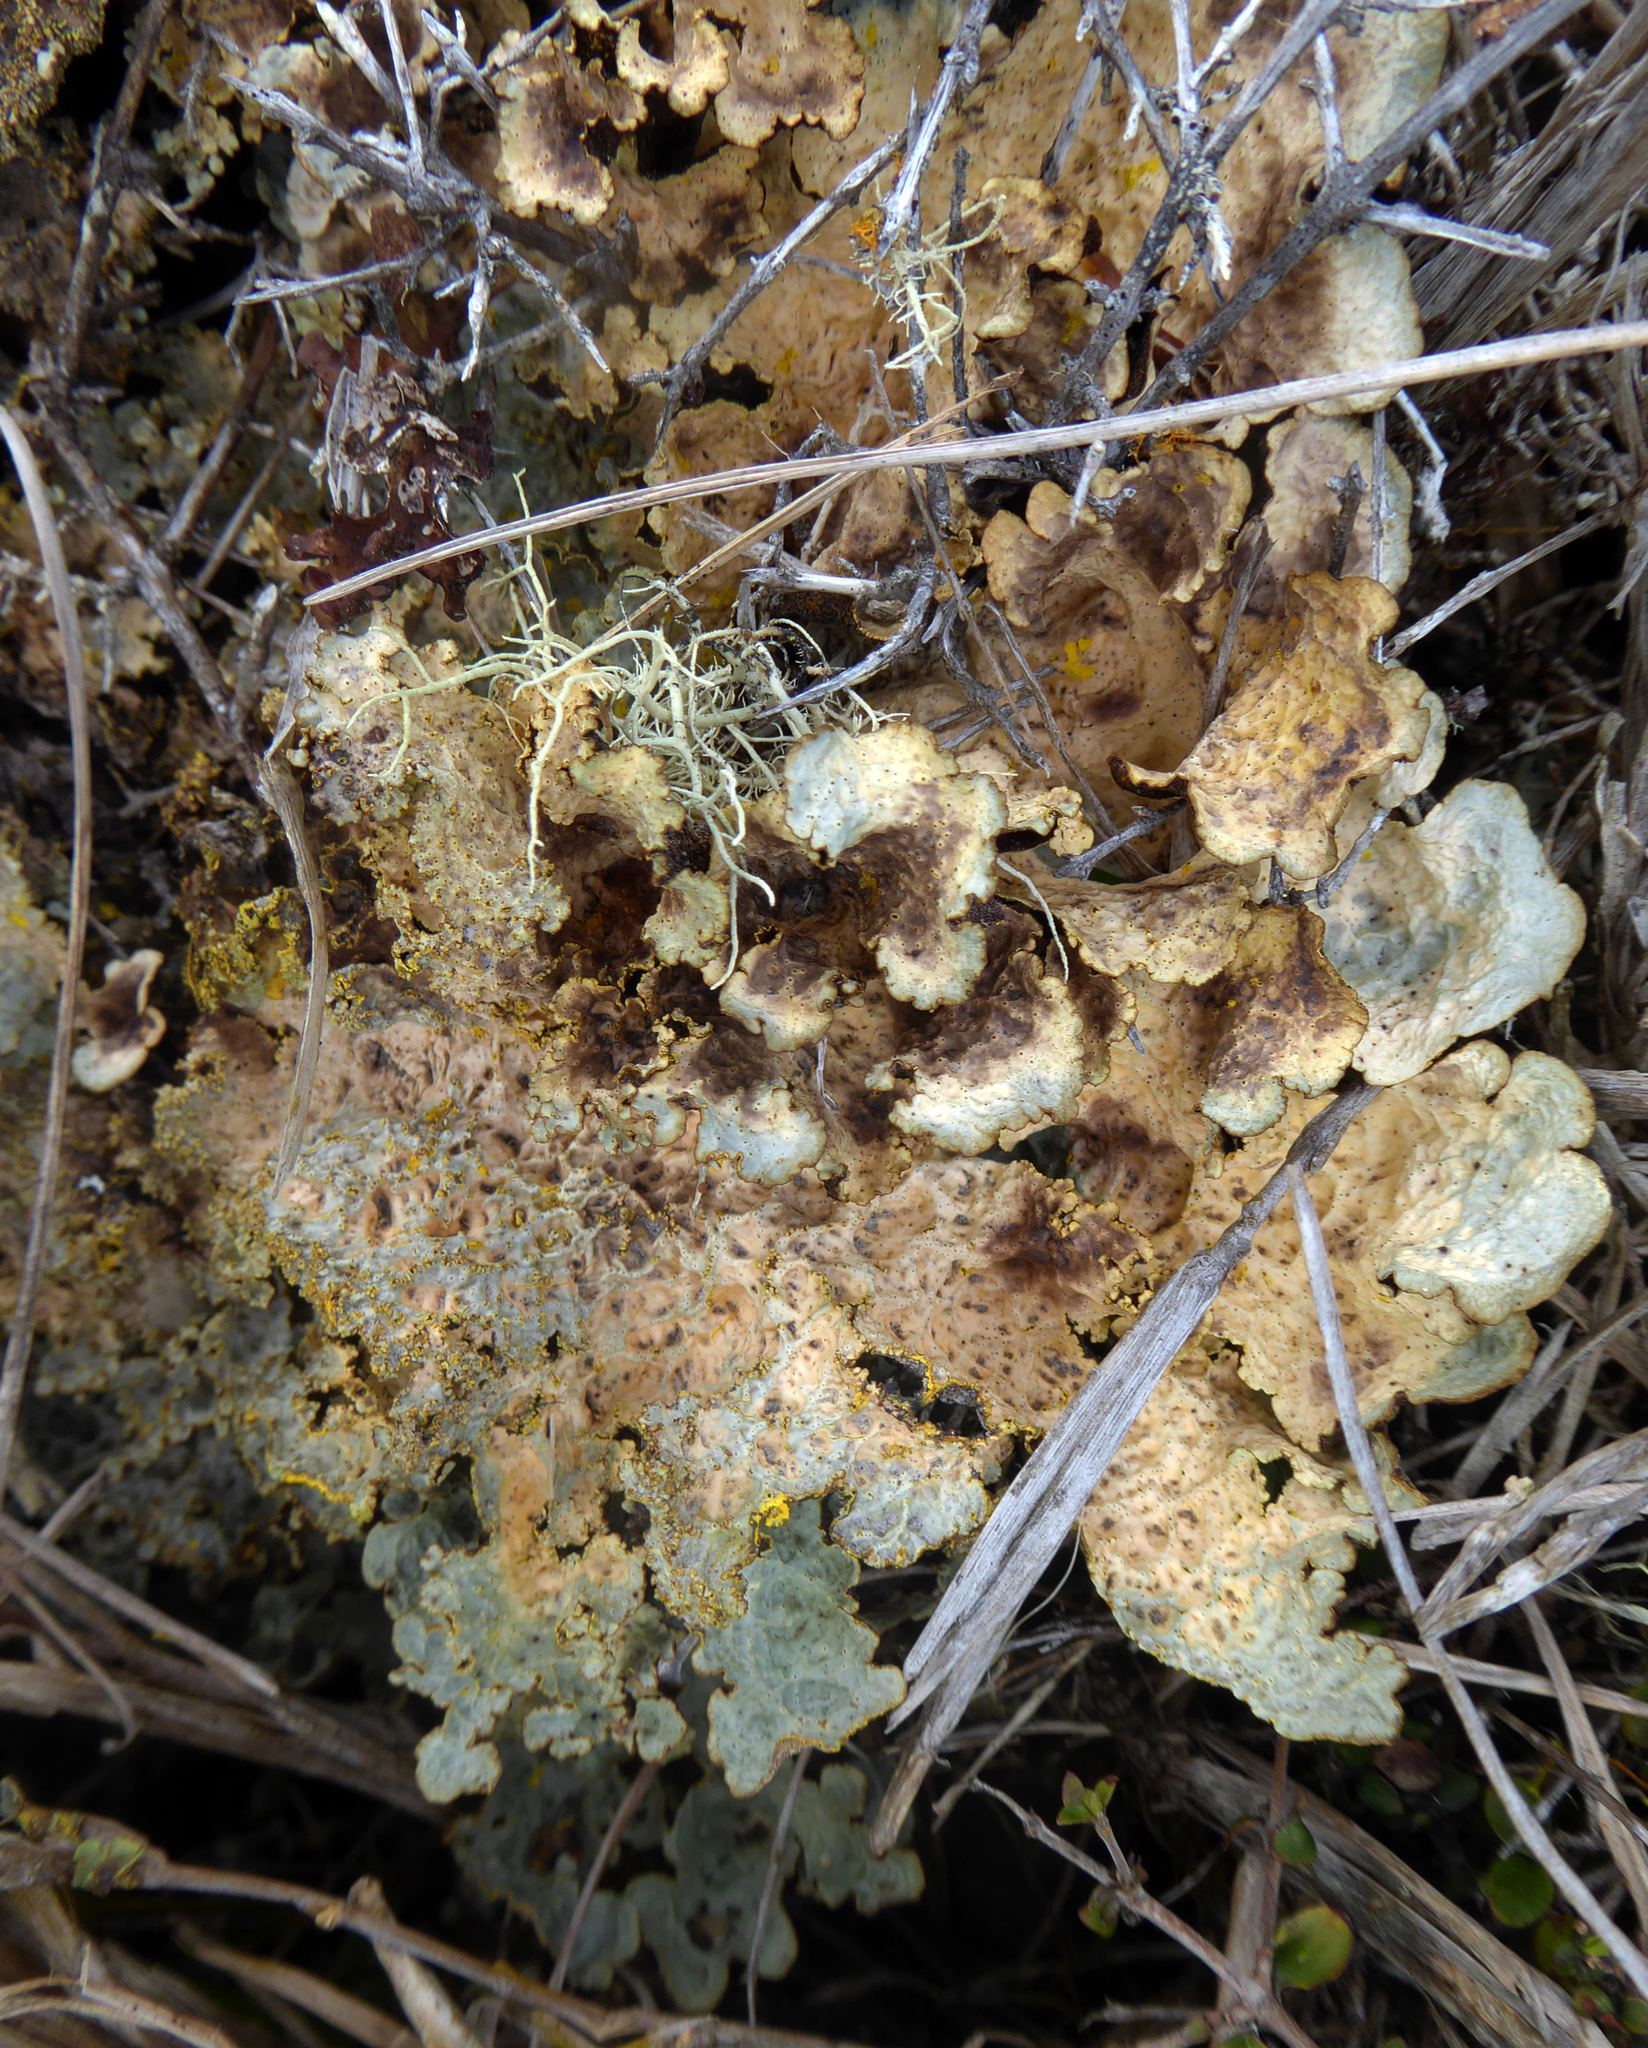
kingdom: Fungi
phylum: Ascomycota
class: Lecanoromycetes
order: Peltigerales
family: Lobariaceae
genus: Yarrumia
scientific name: Yarrumia coronata
